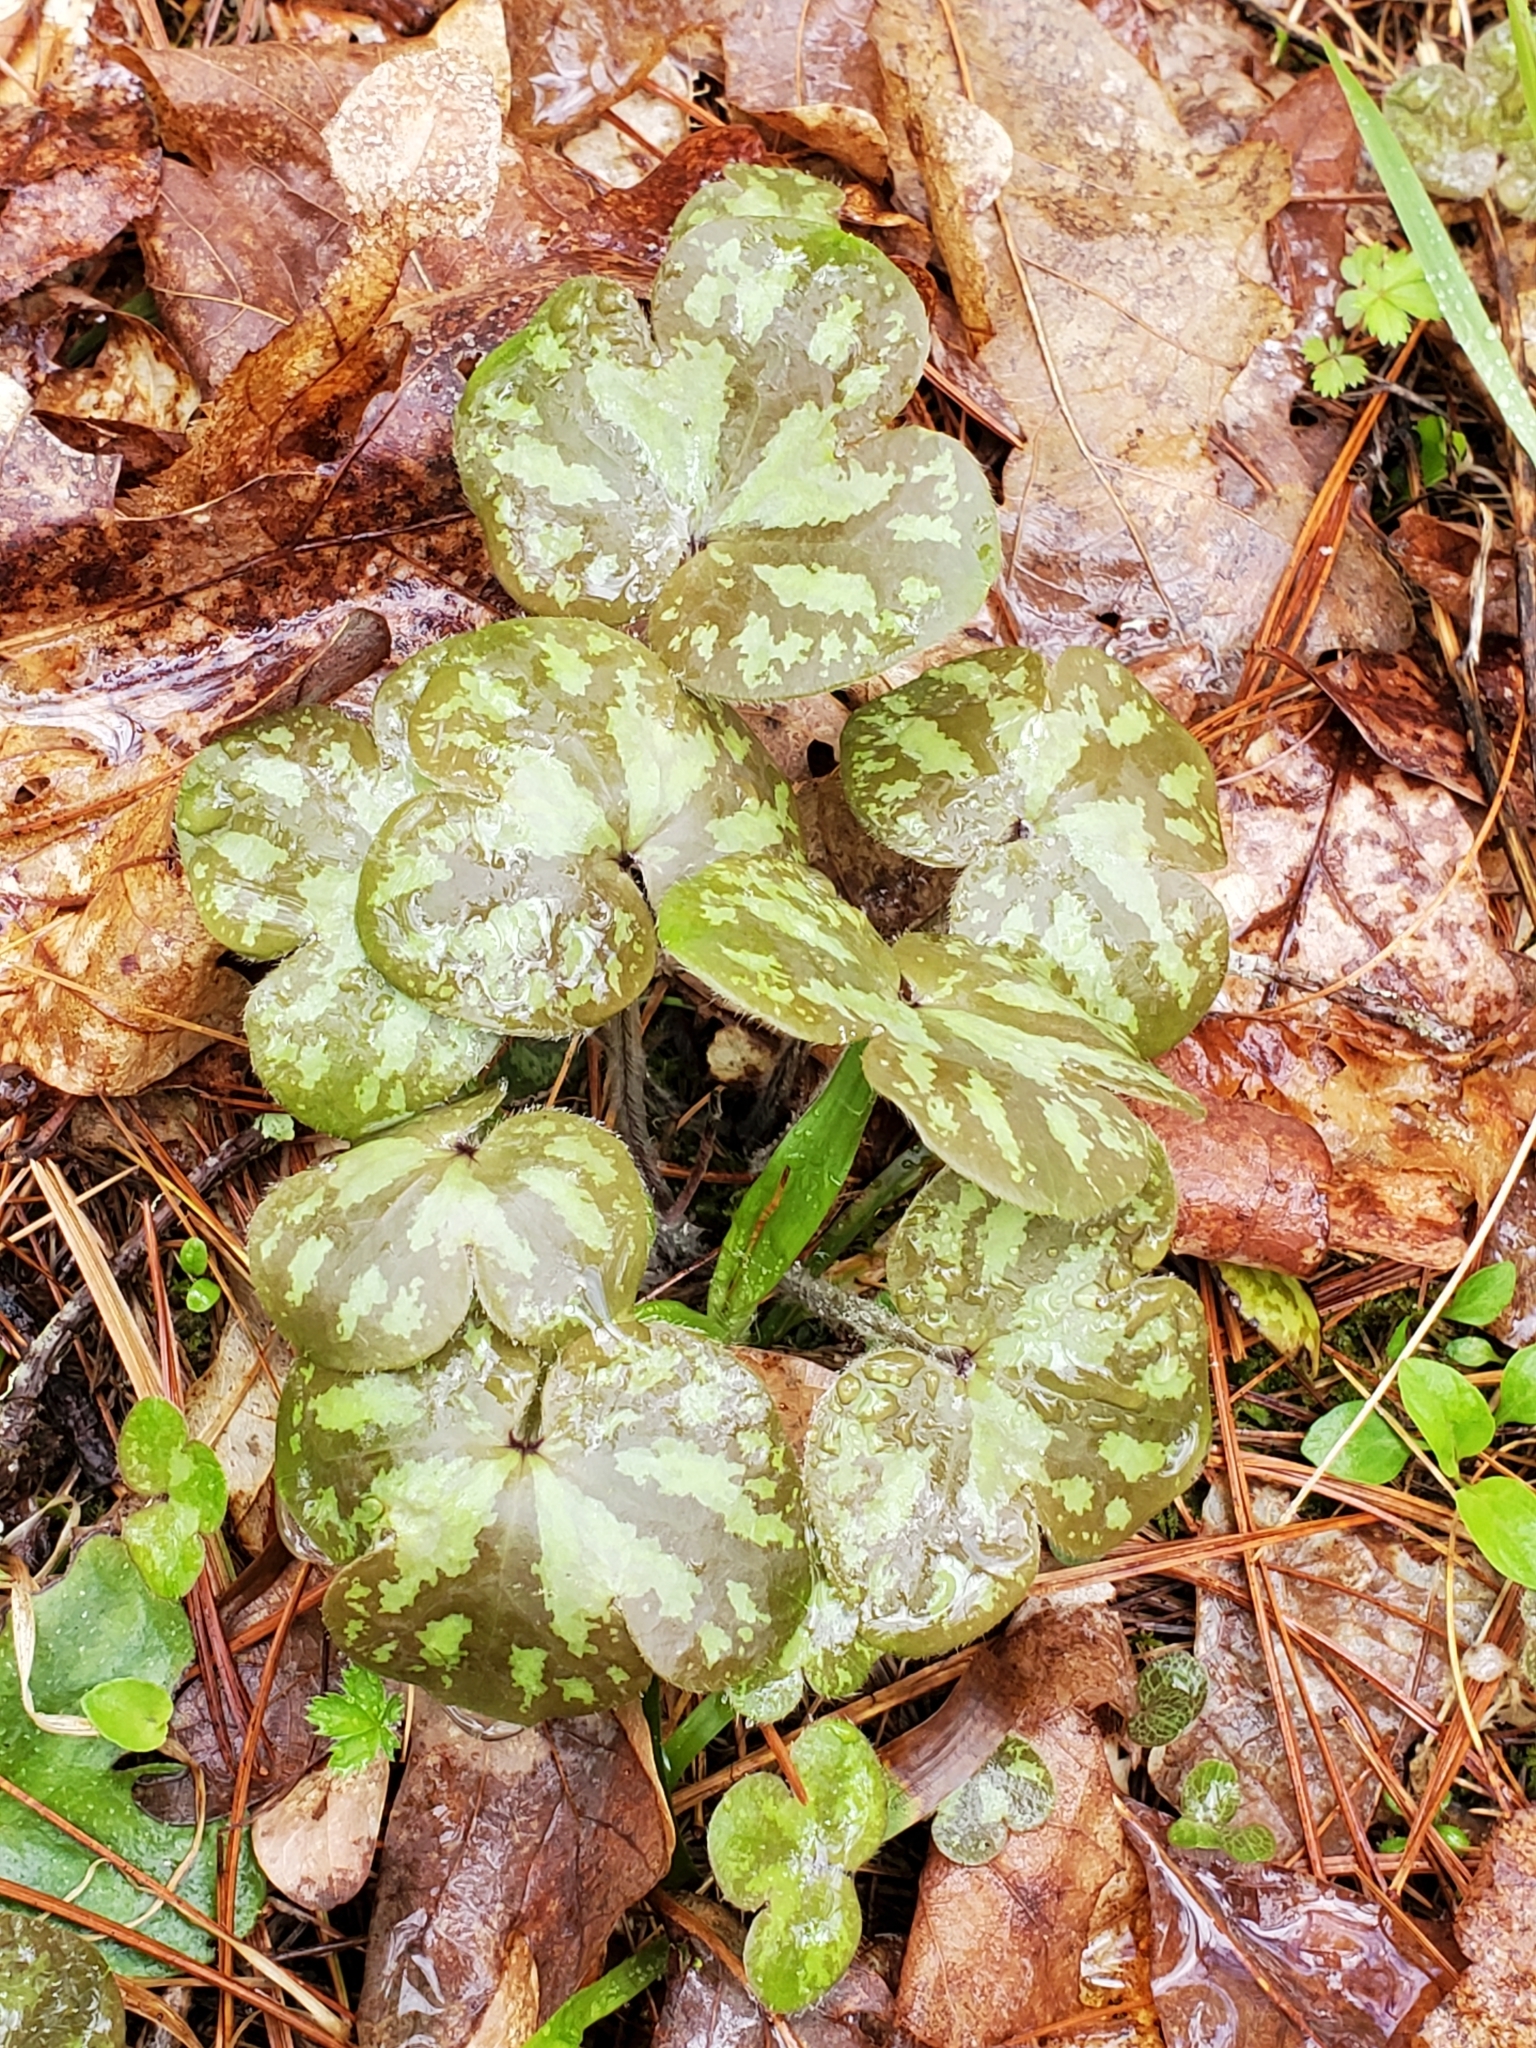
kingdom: Plantae
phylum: Tracheophyta
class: Magnoliopsida
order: Ranunculales
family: Ranunculaceae
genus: Hepatica
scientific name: Hepatica americana
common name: American hepatica
